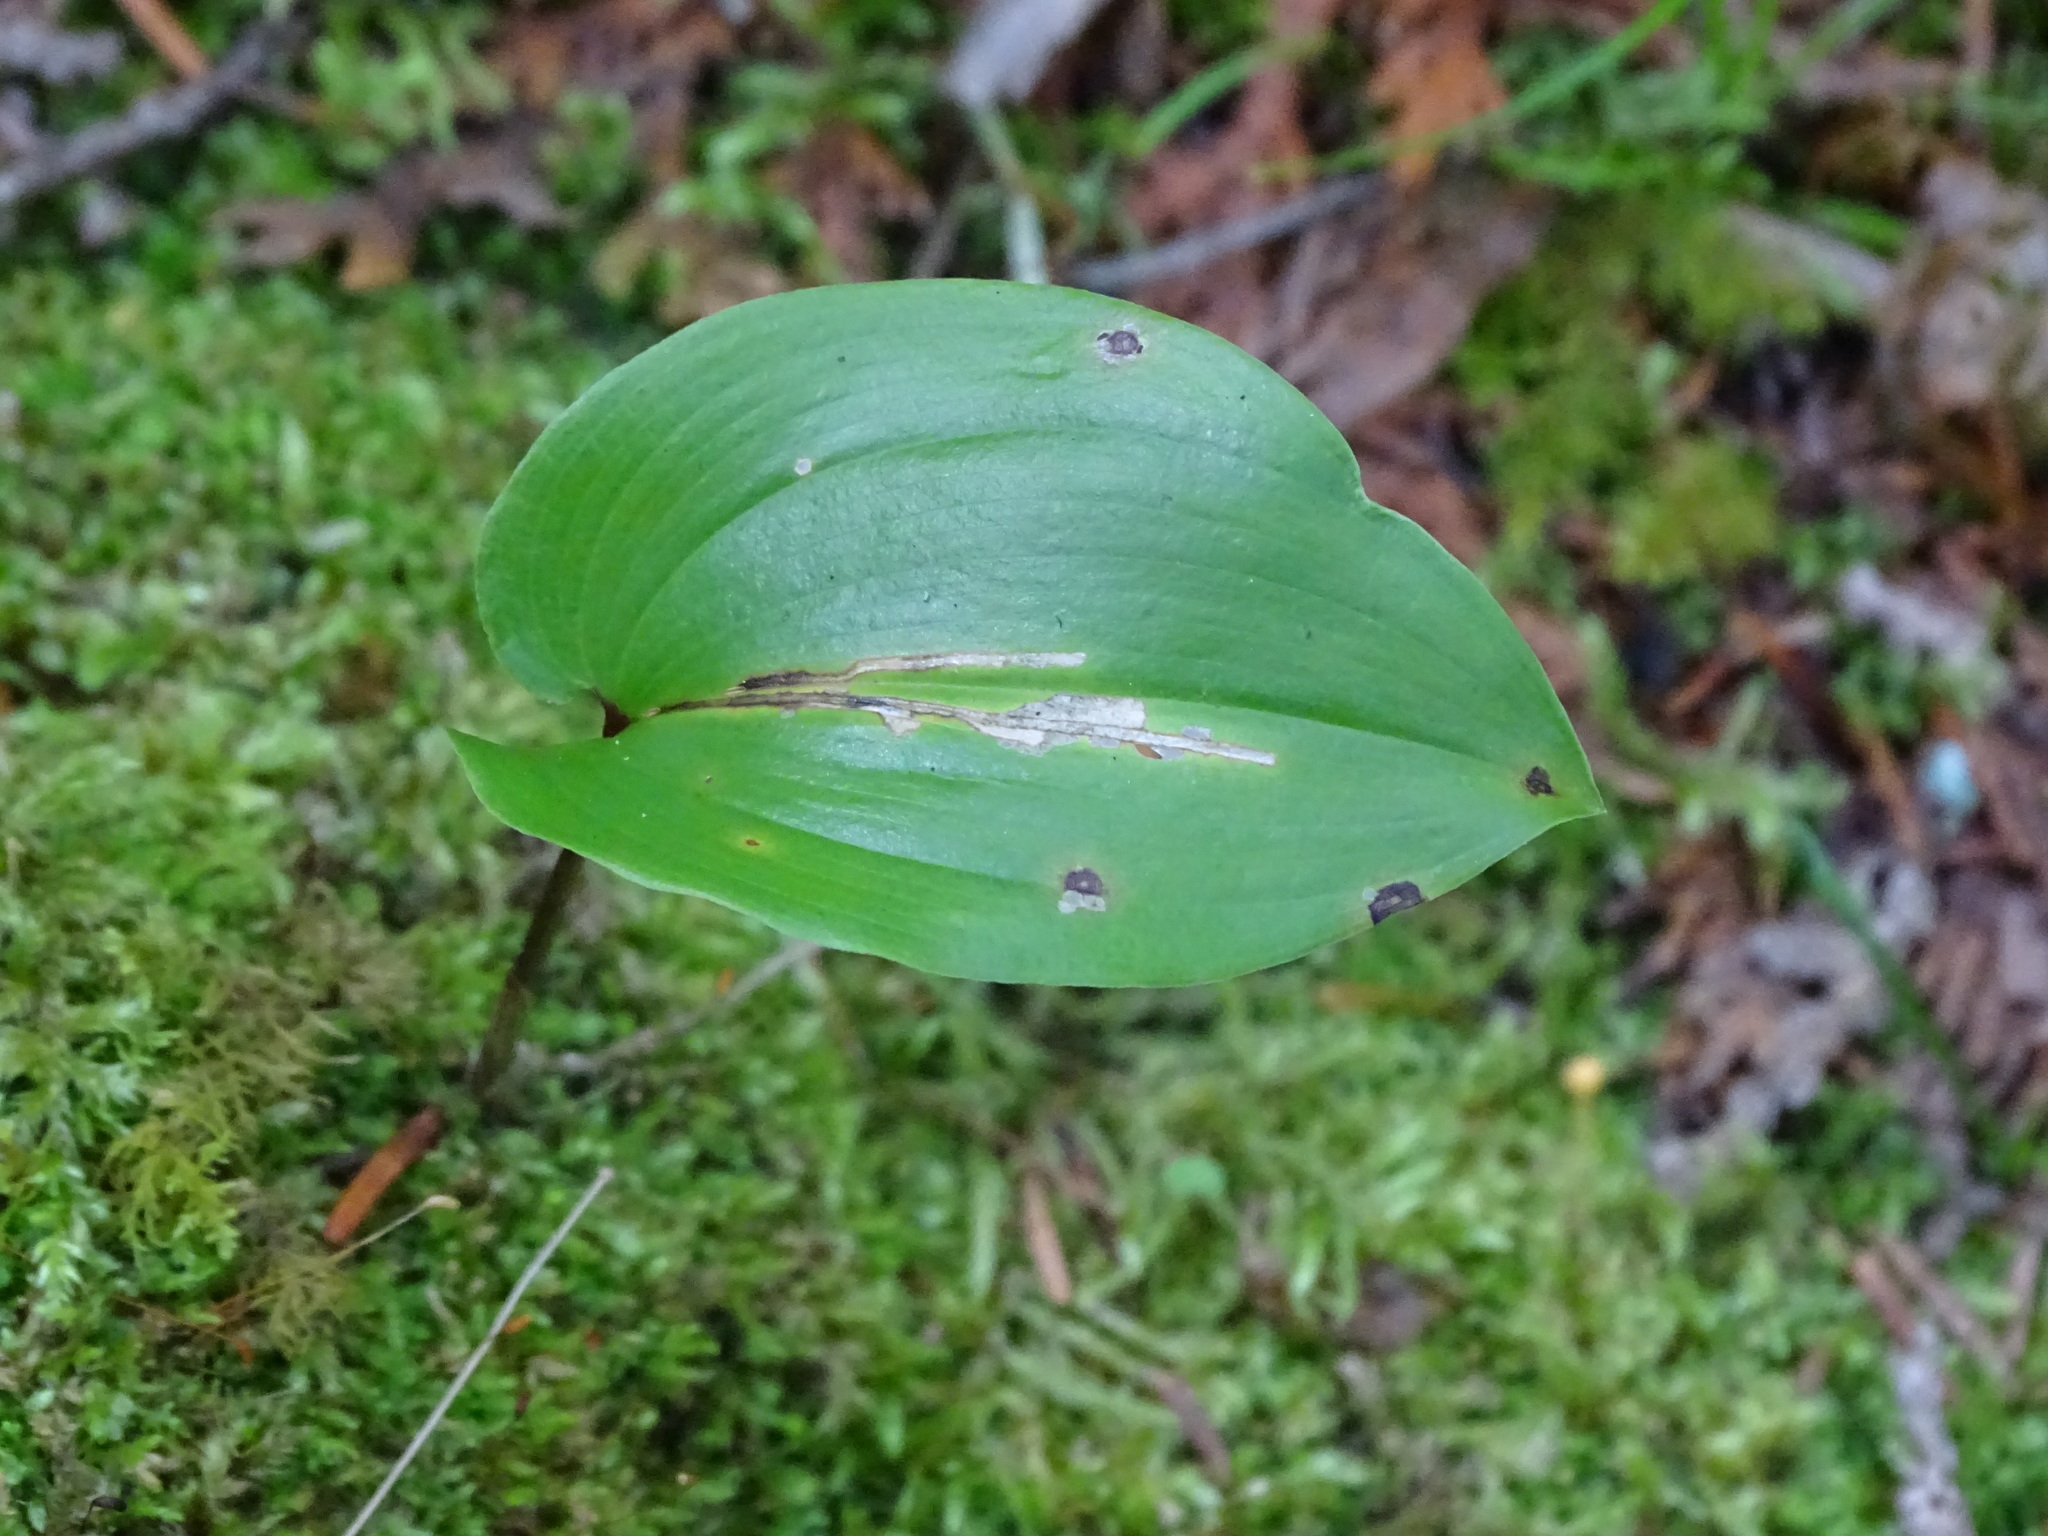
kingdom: Plantae
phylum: Tracheophyta
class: Liliopsida
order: Asparagales
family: Asparagaceae
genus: Maianthemum
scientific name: Maianthemum canadense
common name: False lily-of-the-valley
